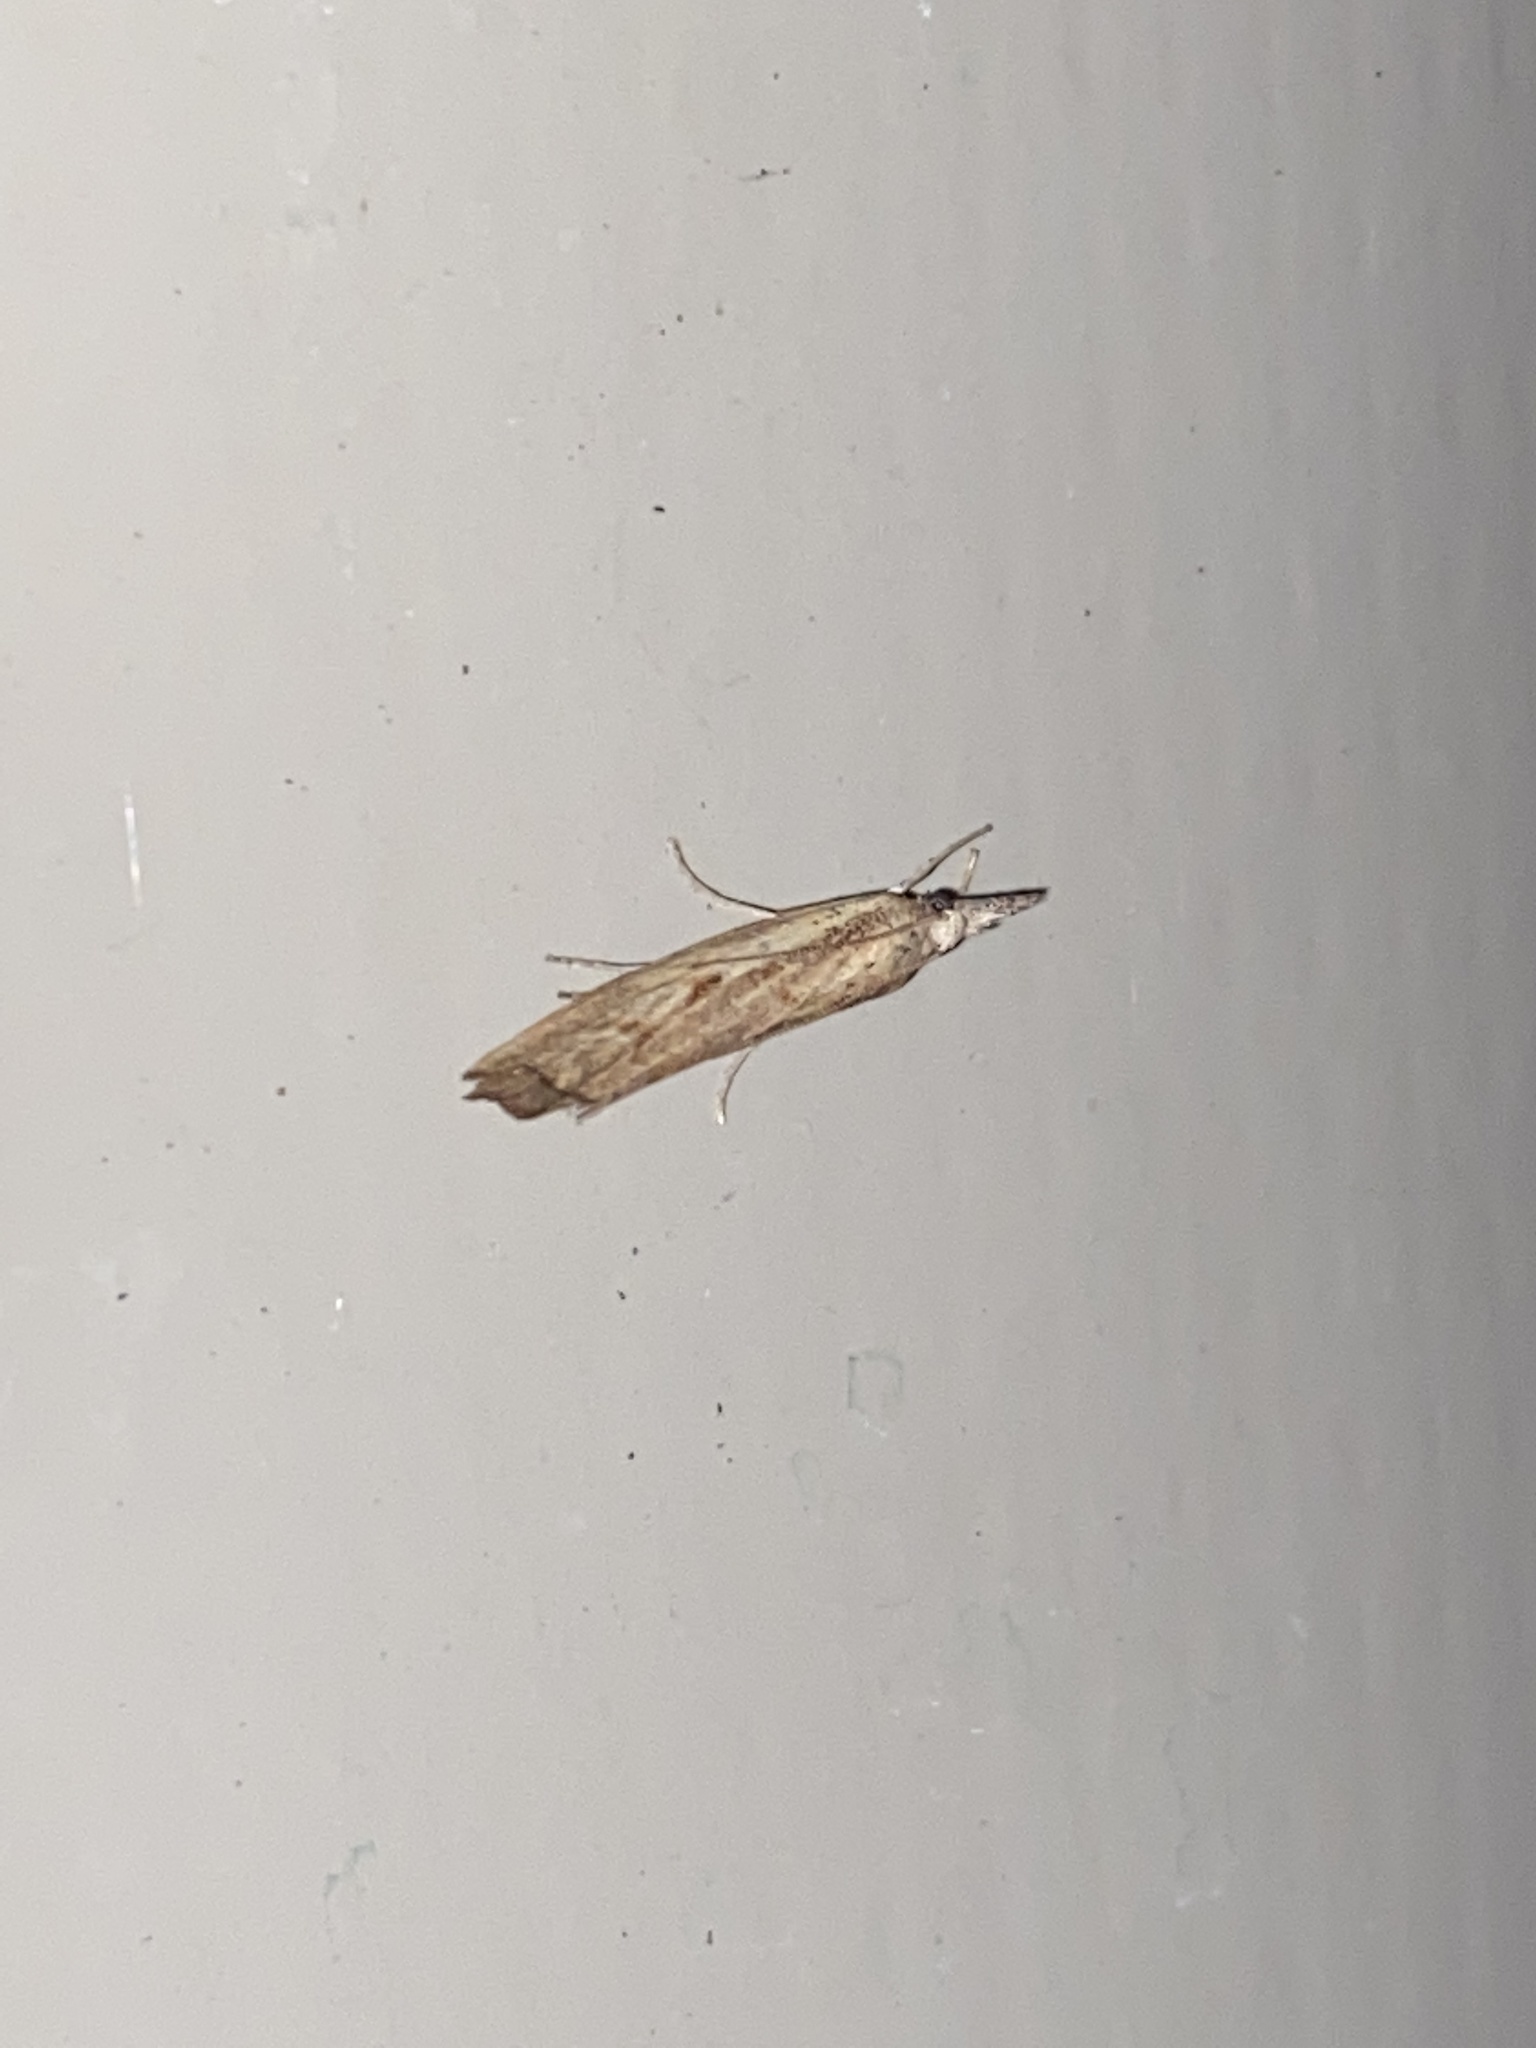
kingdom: Animalia
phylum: Arthropoda
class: Insecta
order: Lepidoptera
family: Crambidae
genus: Agriphila
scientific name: Agriphila inquinatella
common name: Barred grass-veneer
